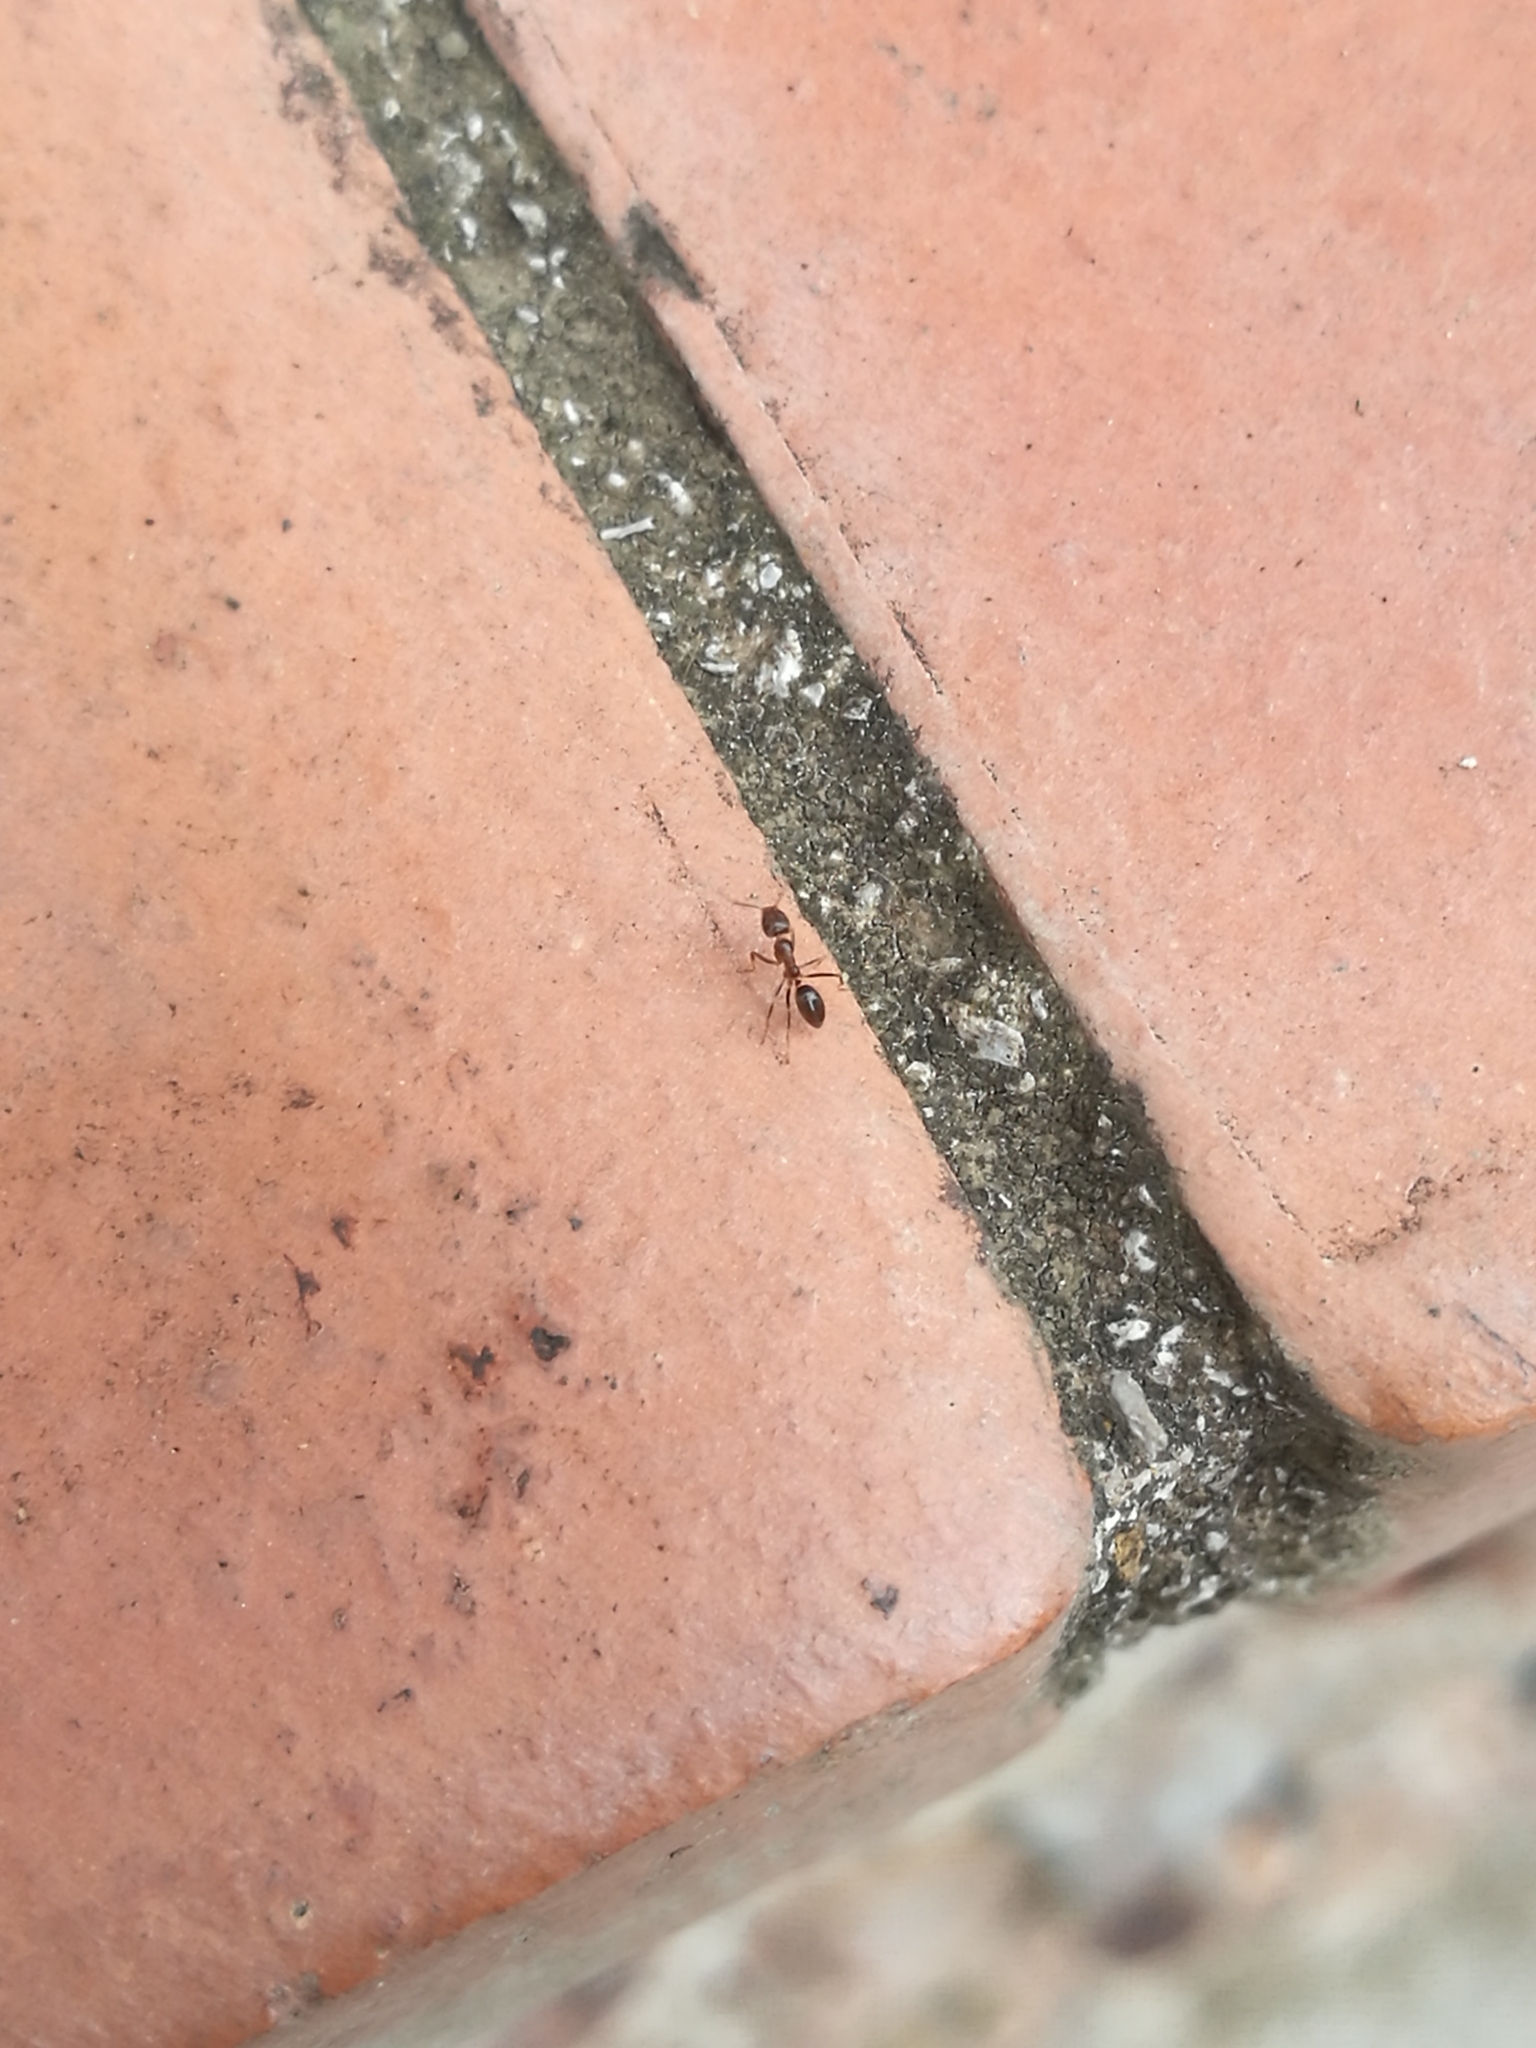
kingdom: Animalia
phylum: Arthropoda
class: Insecta
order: Hymenoptera
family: Formicidae
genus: Linepithema
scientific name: Linepithema humile
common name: Argentine ant
